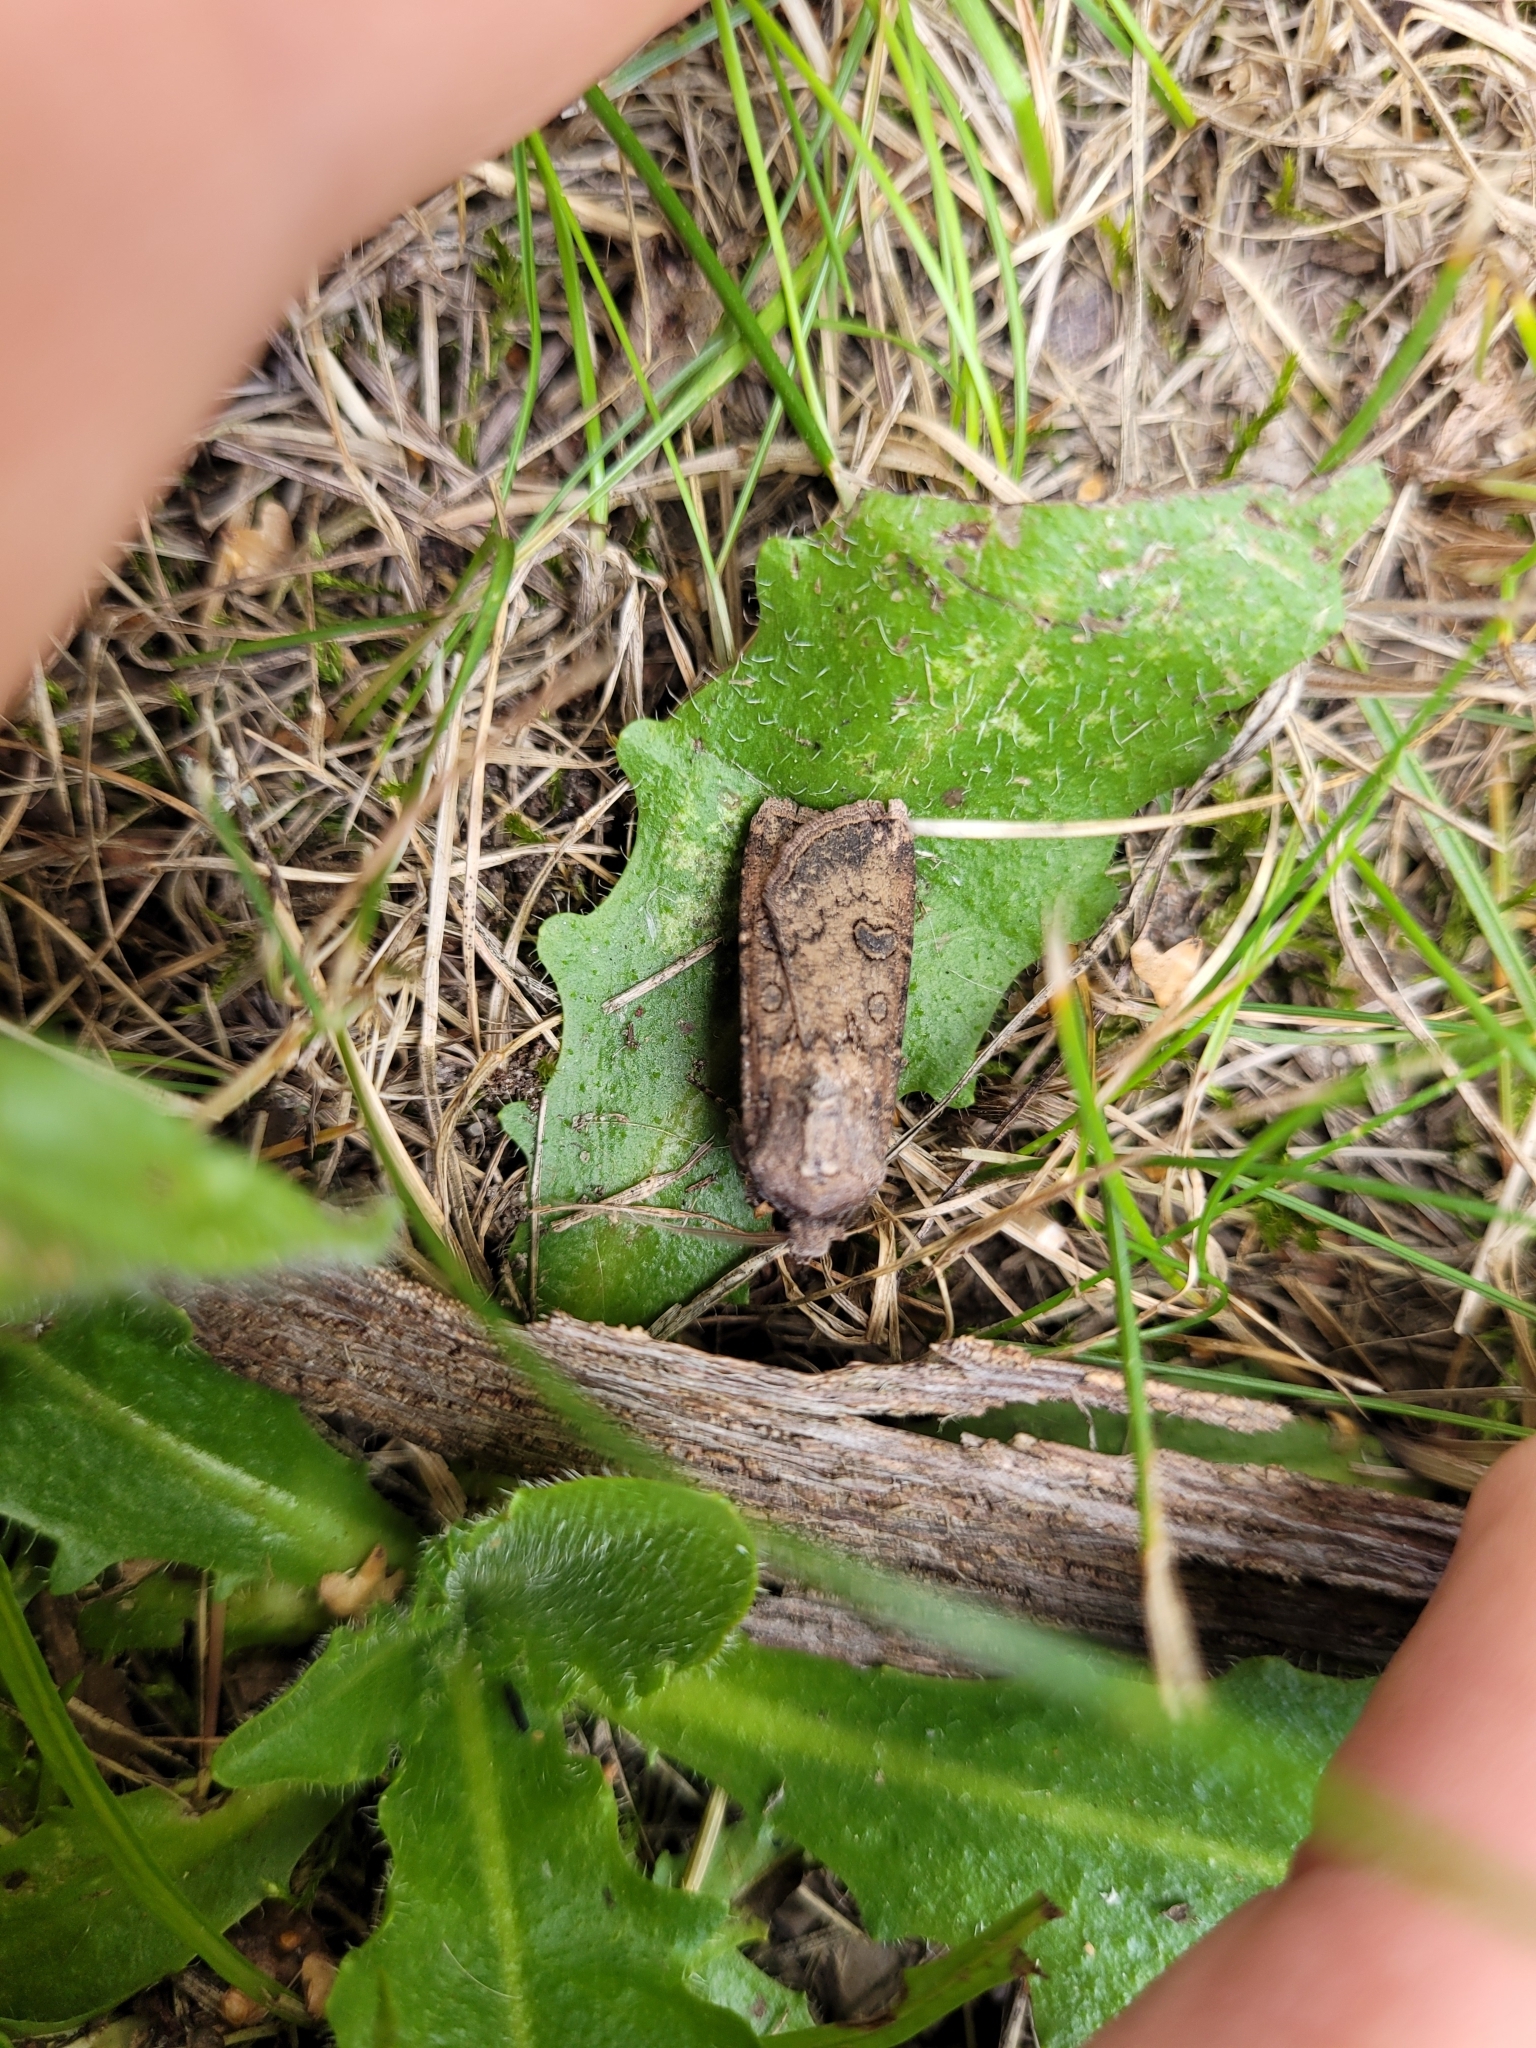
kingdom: Animalia
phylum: Arthropoda
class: Insecta
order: Lepidoptera
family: Noctuidae
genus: Agrotis
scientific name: Agrotis segetum
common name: Turnip moth
